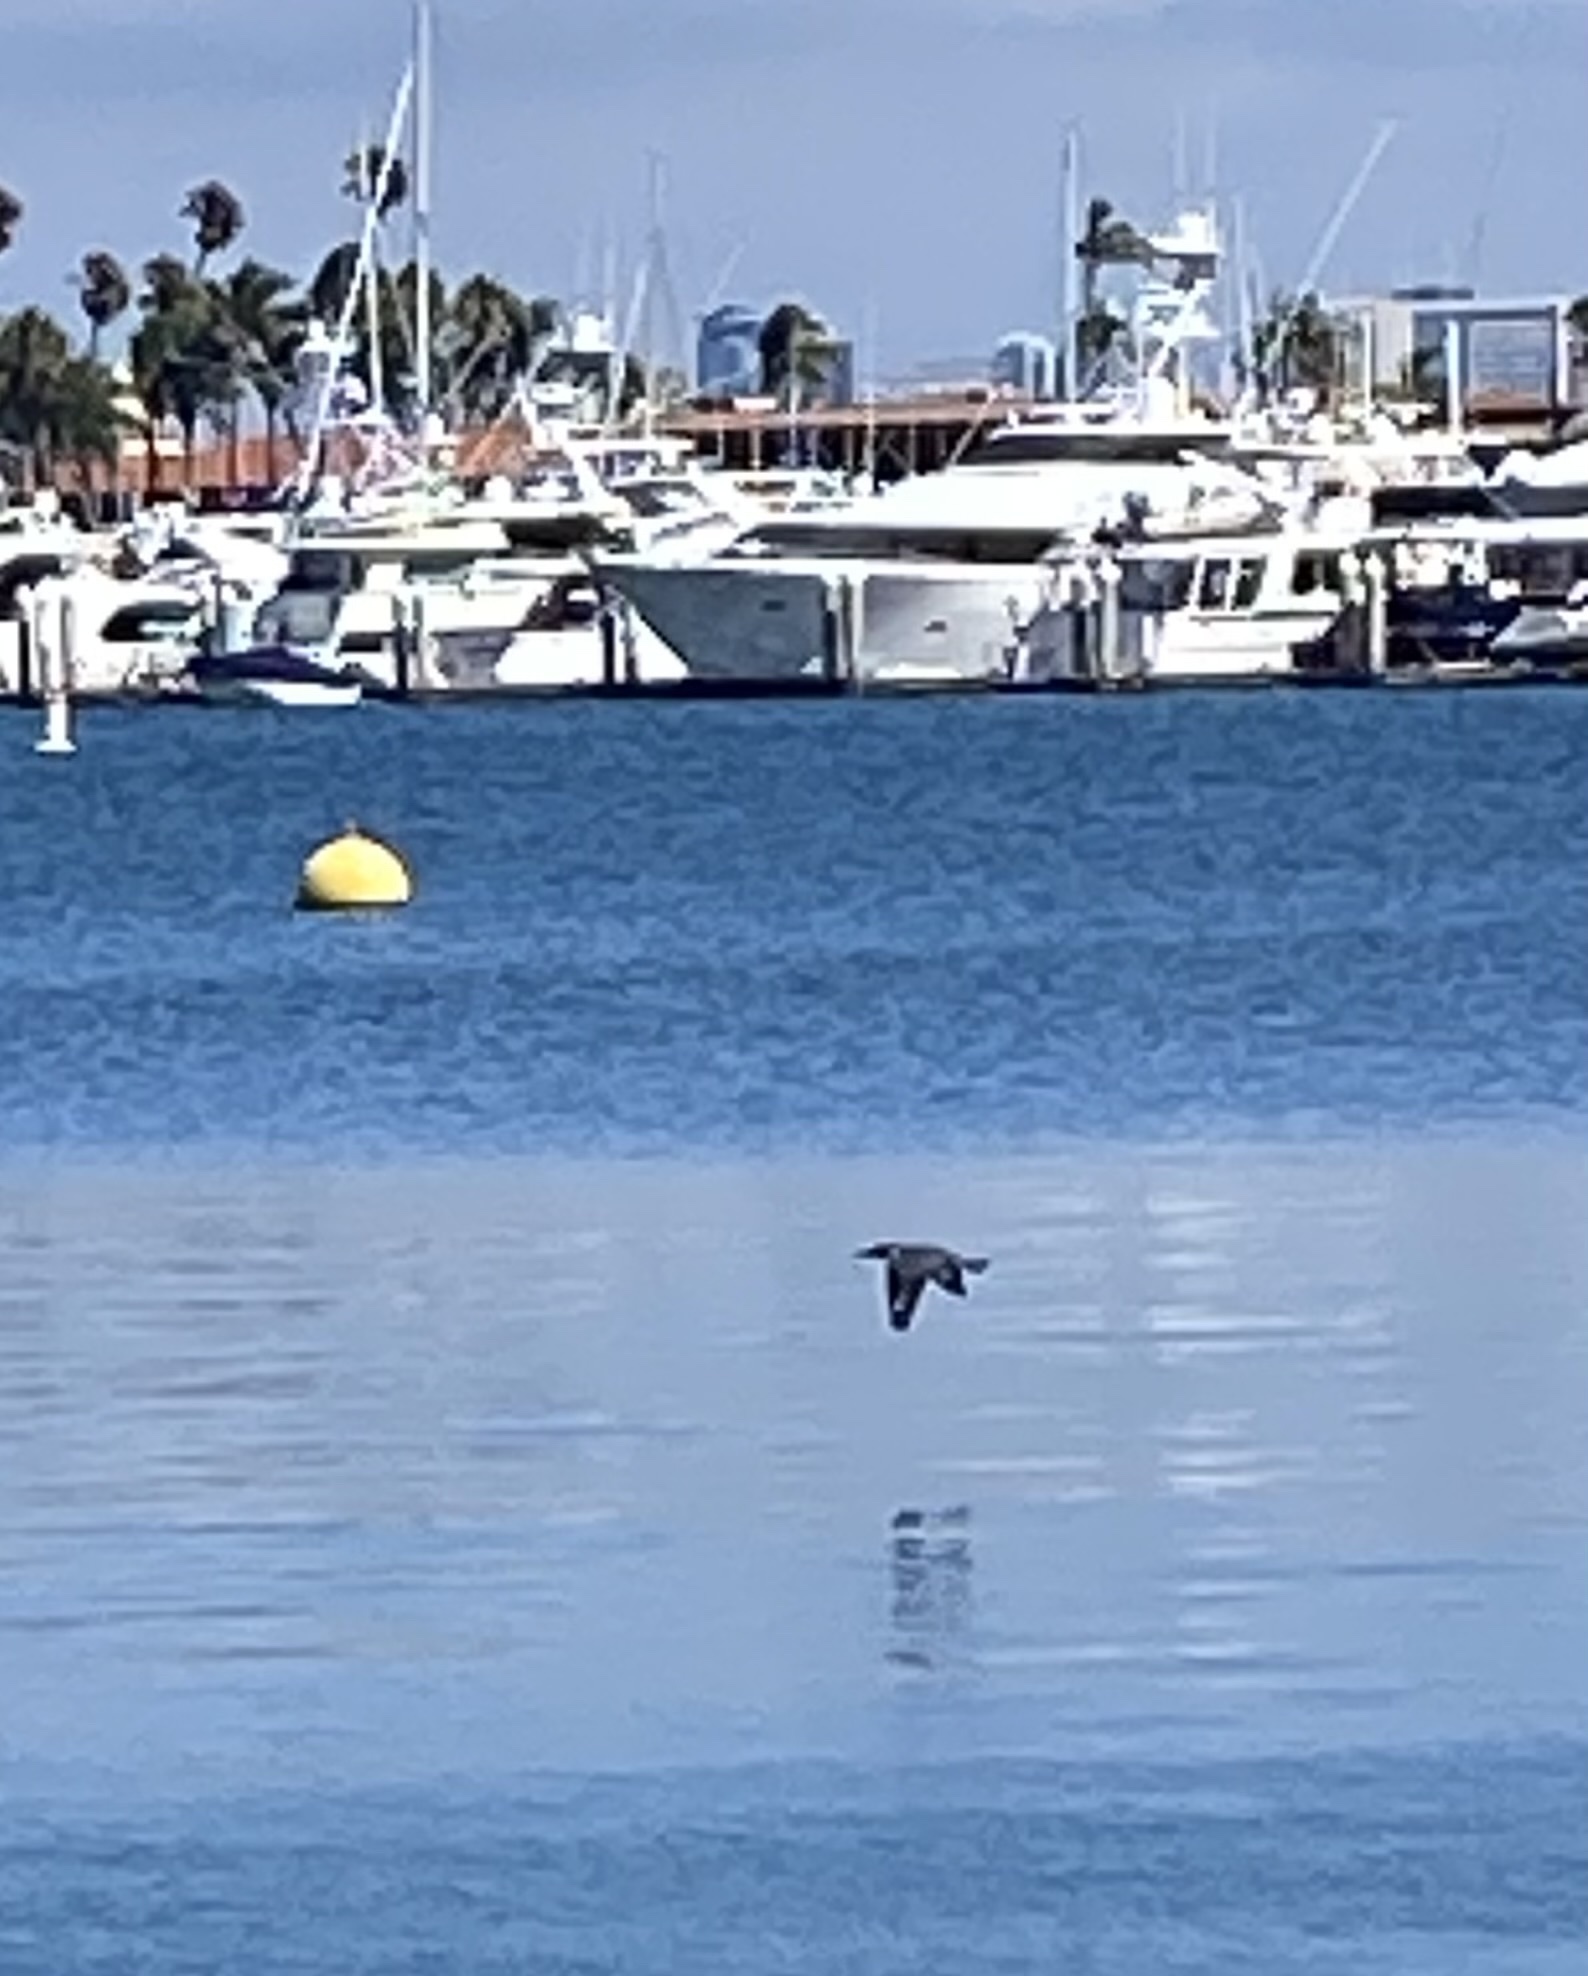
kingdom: Animalia
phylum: Chordata
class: Aves
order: Coraciiformes
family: Alcedinidae
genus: Megaceryle
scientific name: Megaceryle alcyon
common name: Belted kingfisher
